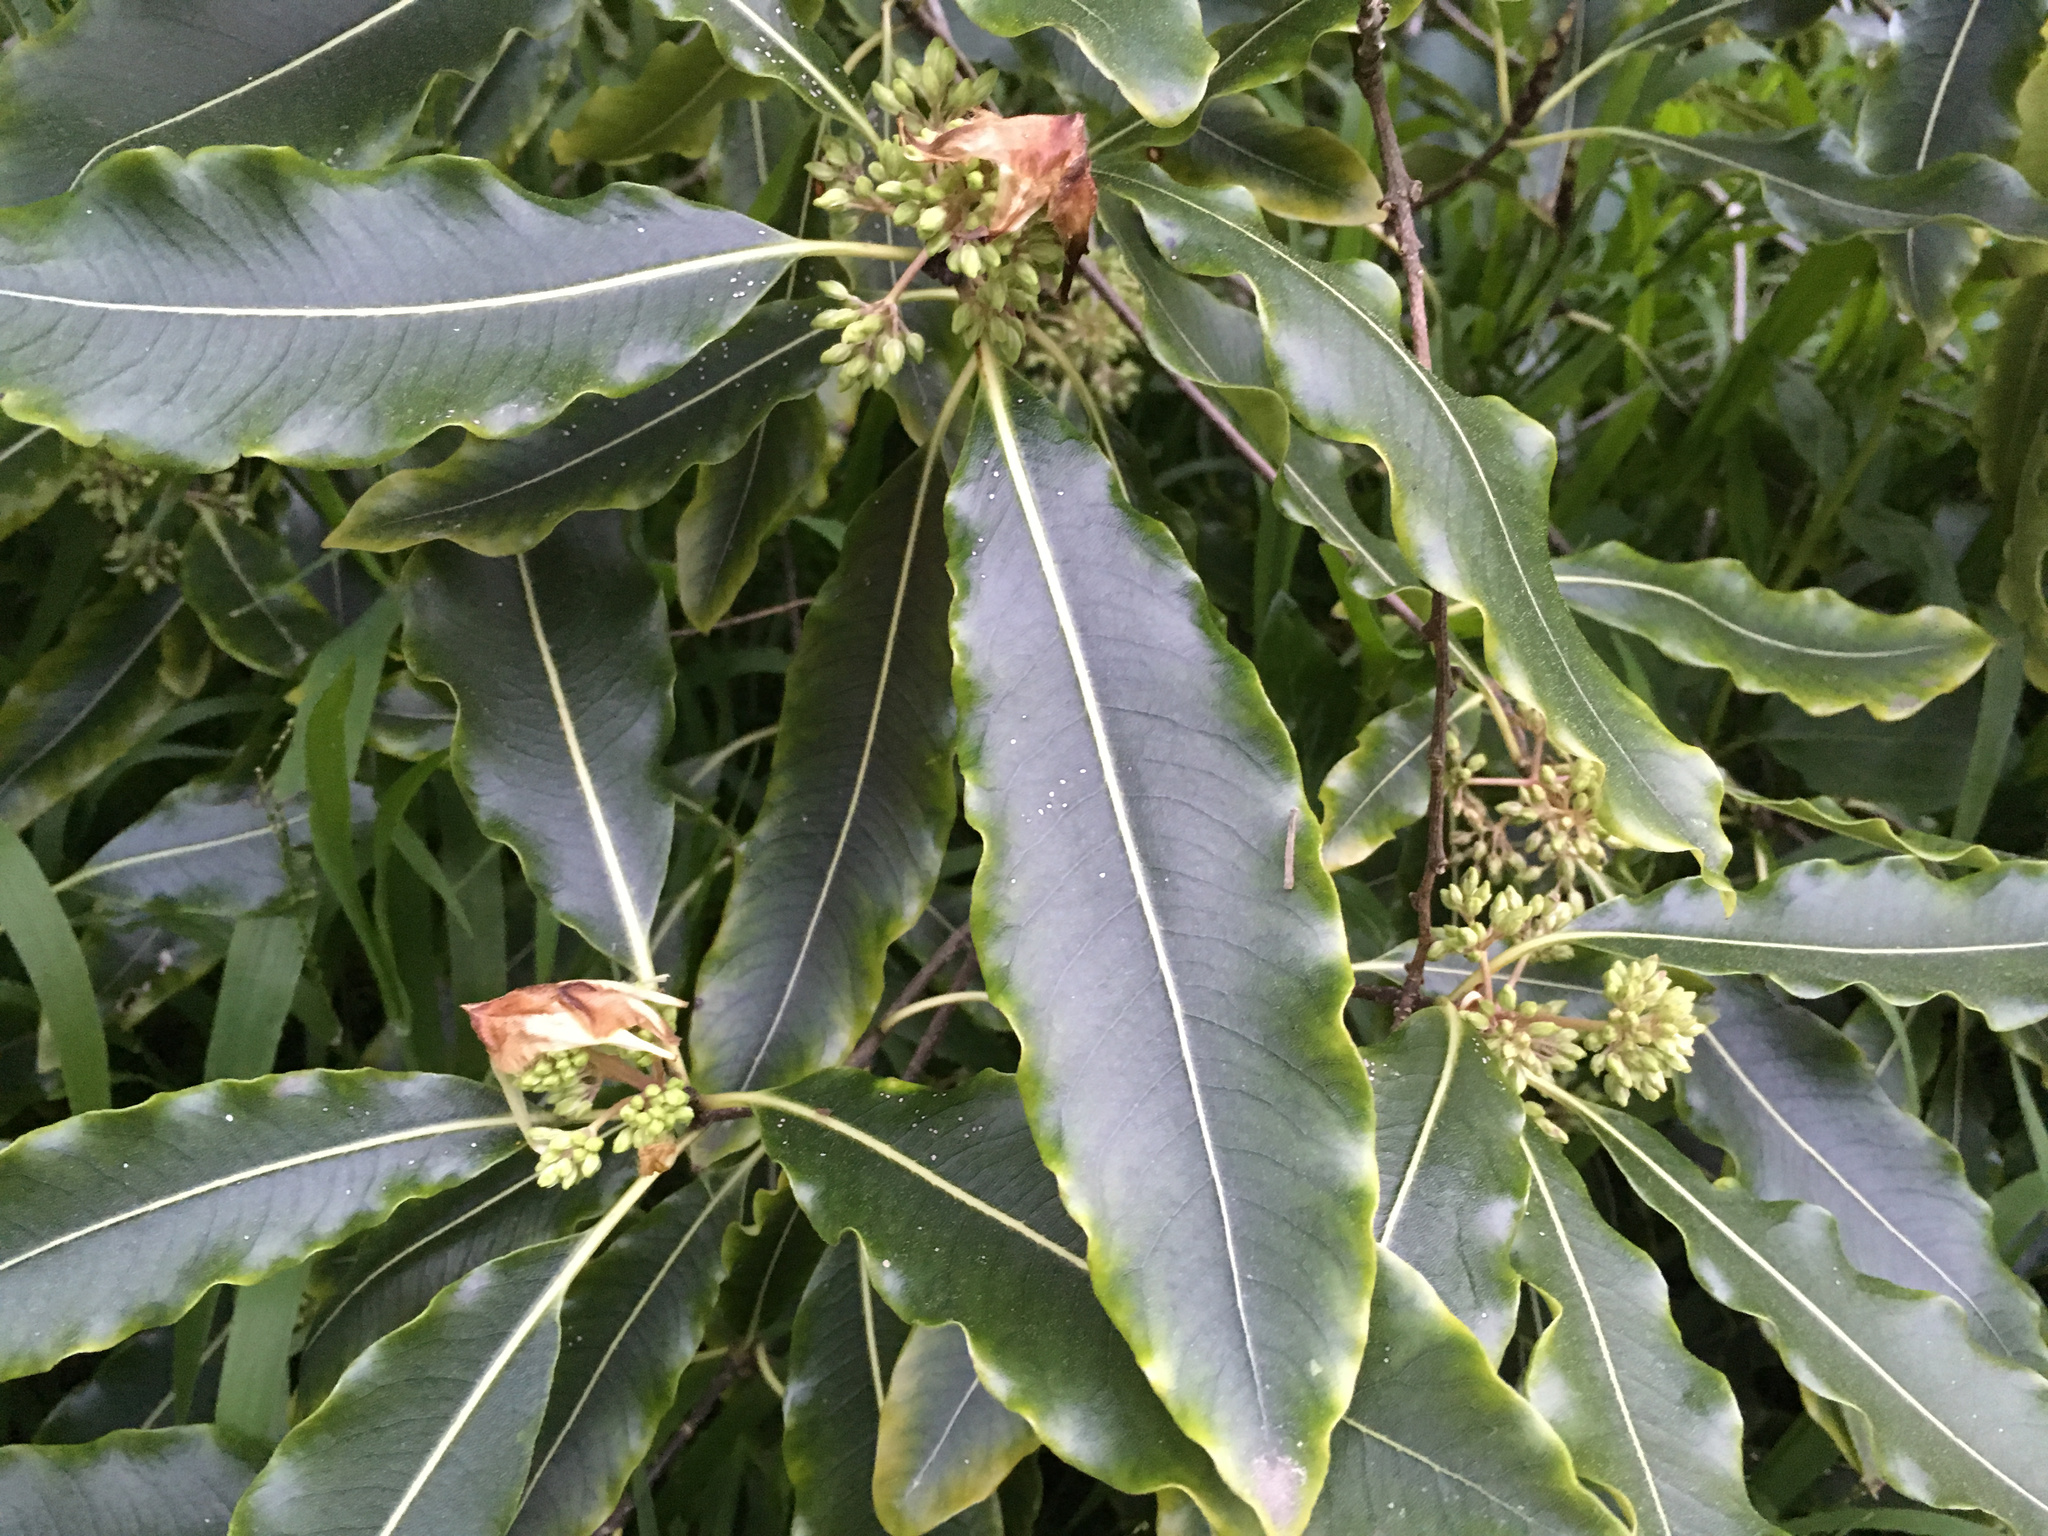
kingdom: Plantae
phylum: Tracheophyta
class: Magnoliopsida
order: Apiales
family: Pittosporaceae
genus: Pittosporum
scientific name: Pittosporum eugenioides
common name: Lemonwood
